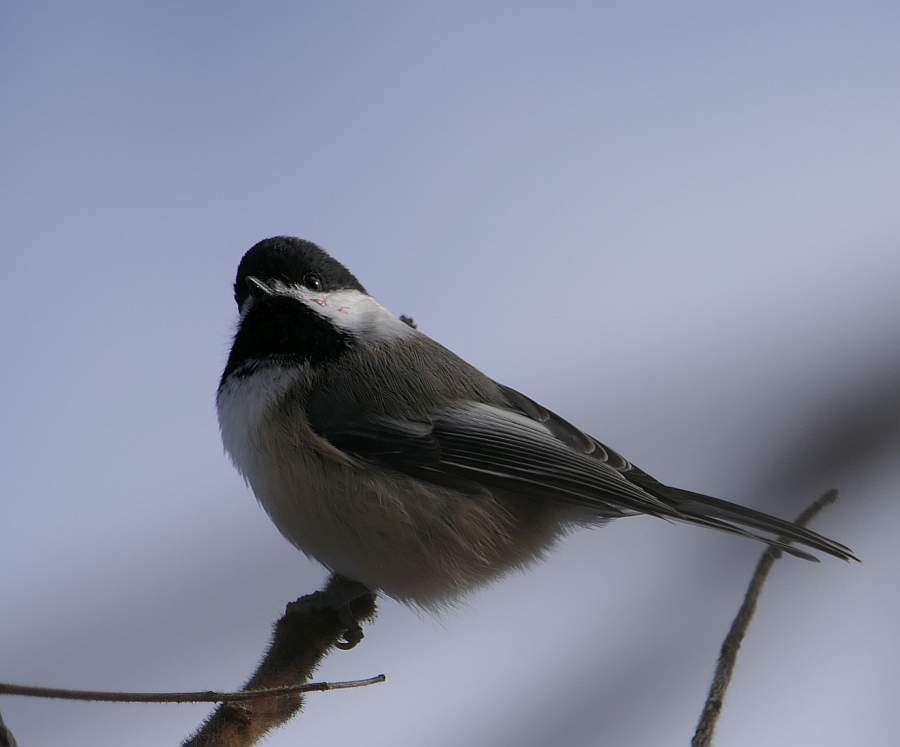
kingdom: Animalia
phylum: Chordata
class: Aves
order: Passeriformes
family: Paridae
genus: Poecile
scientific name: Poecile atricapillus
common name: Black-capped chickadee
